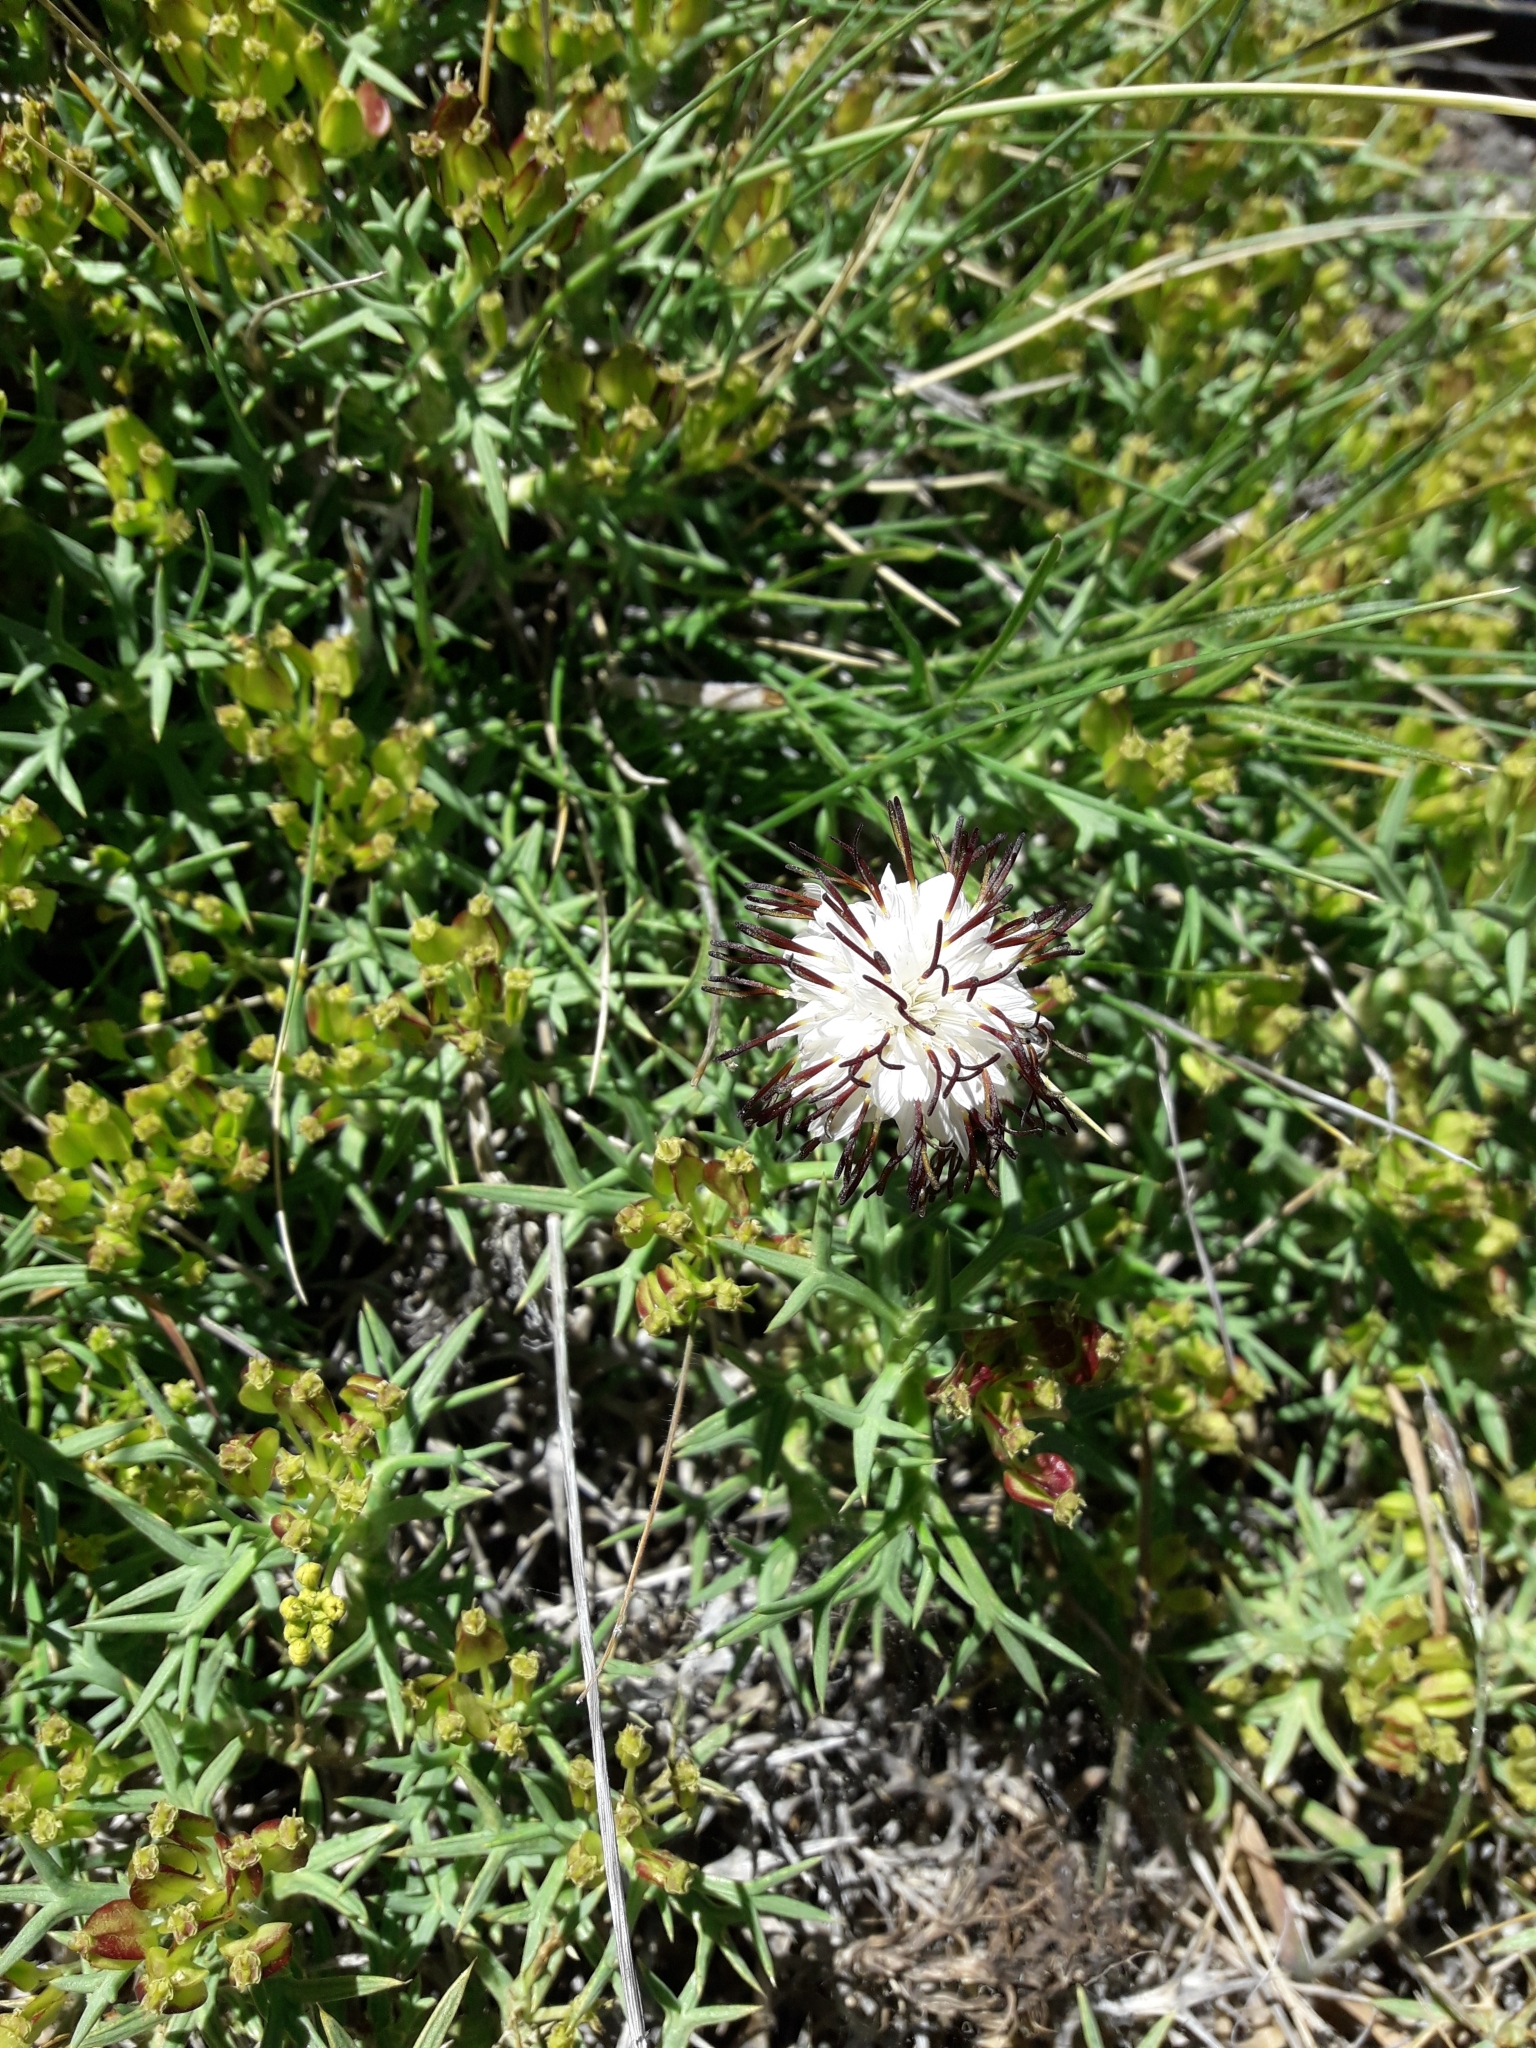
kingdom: Plantae
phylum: Tracheophyta
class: Magnoliopsida
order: Asterales
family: Asteraceae
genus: Hypochaeris
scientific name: Hypochaeris incana
